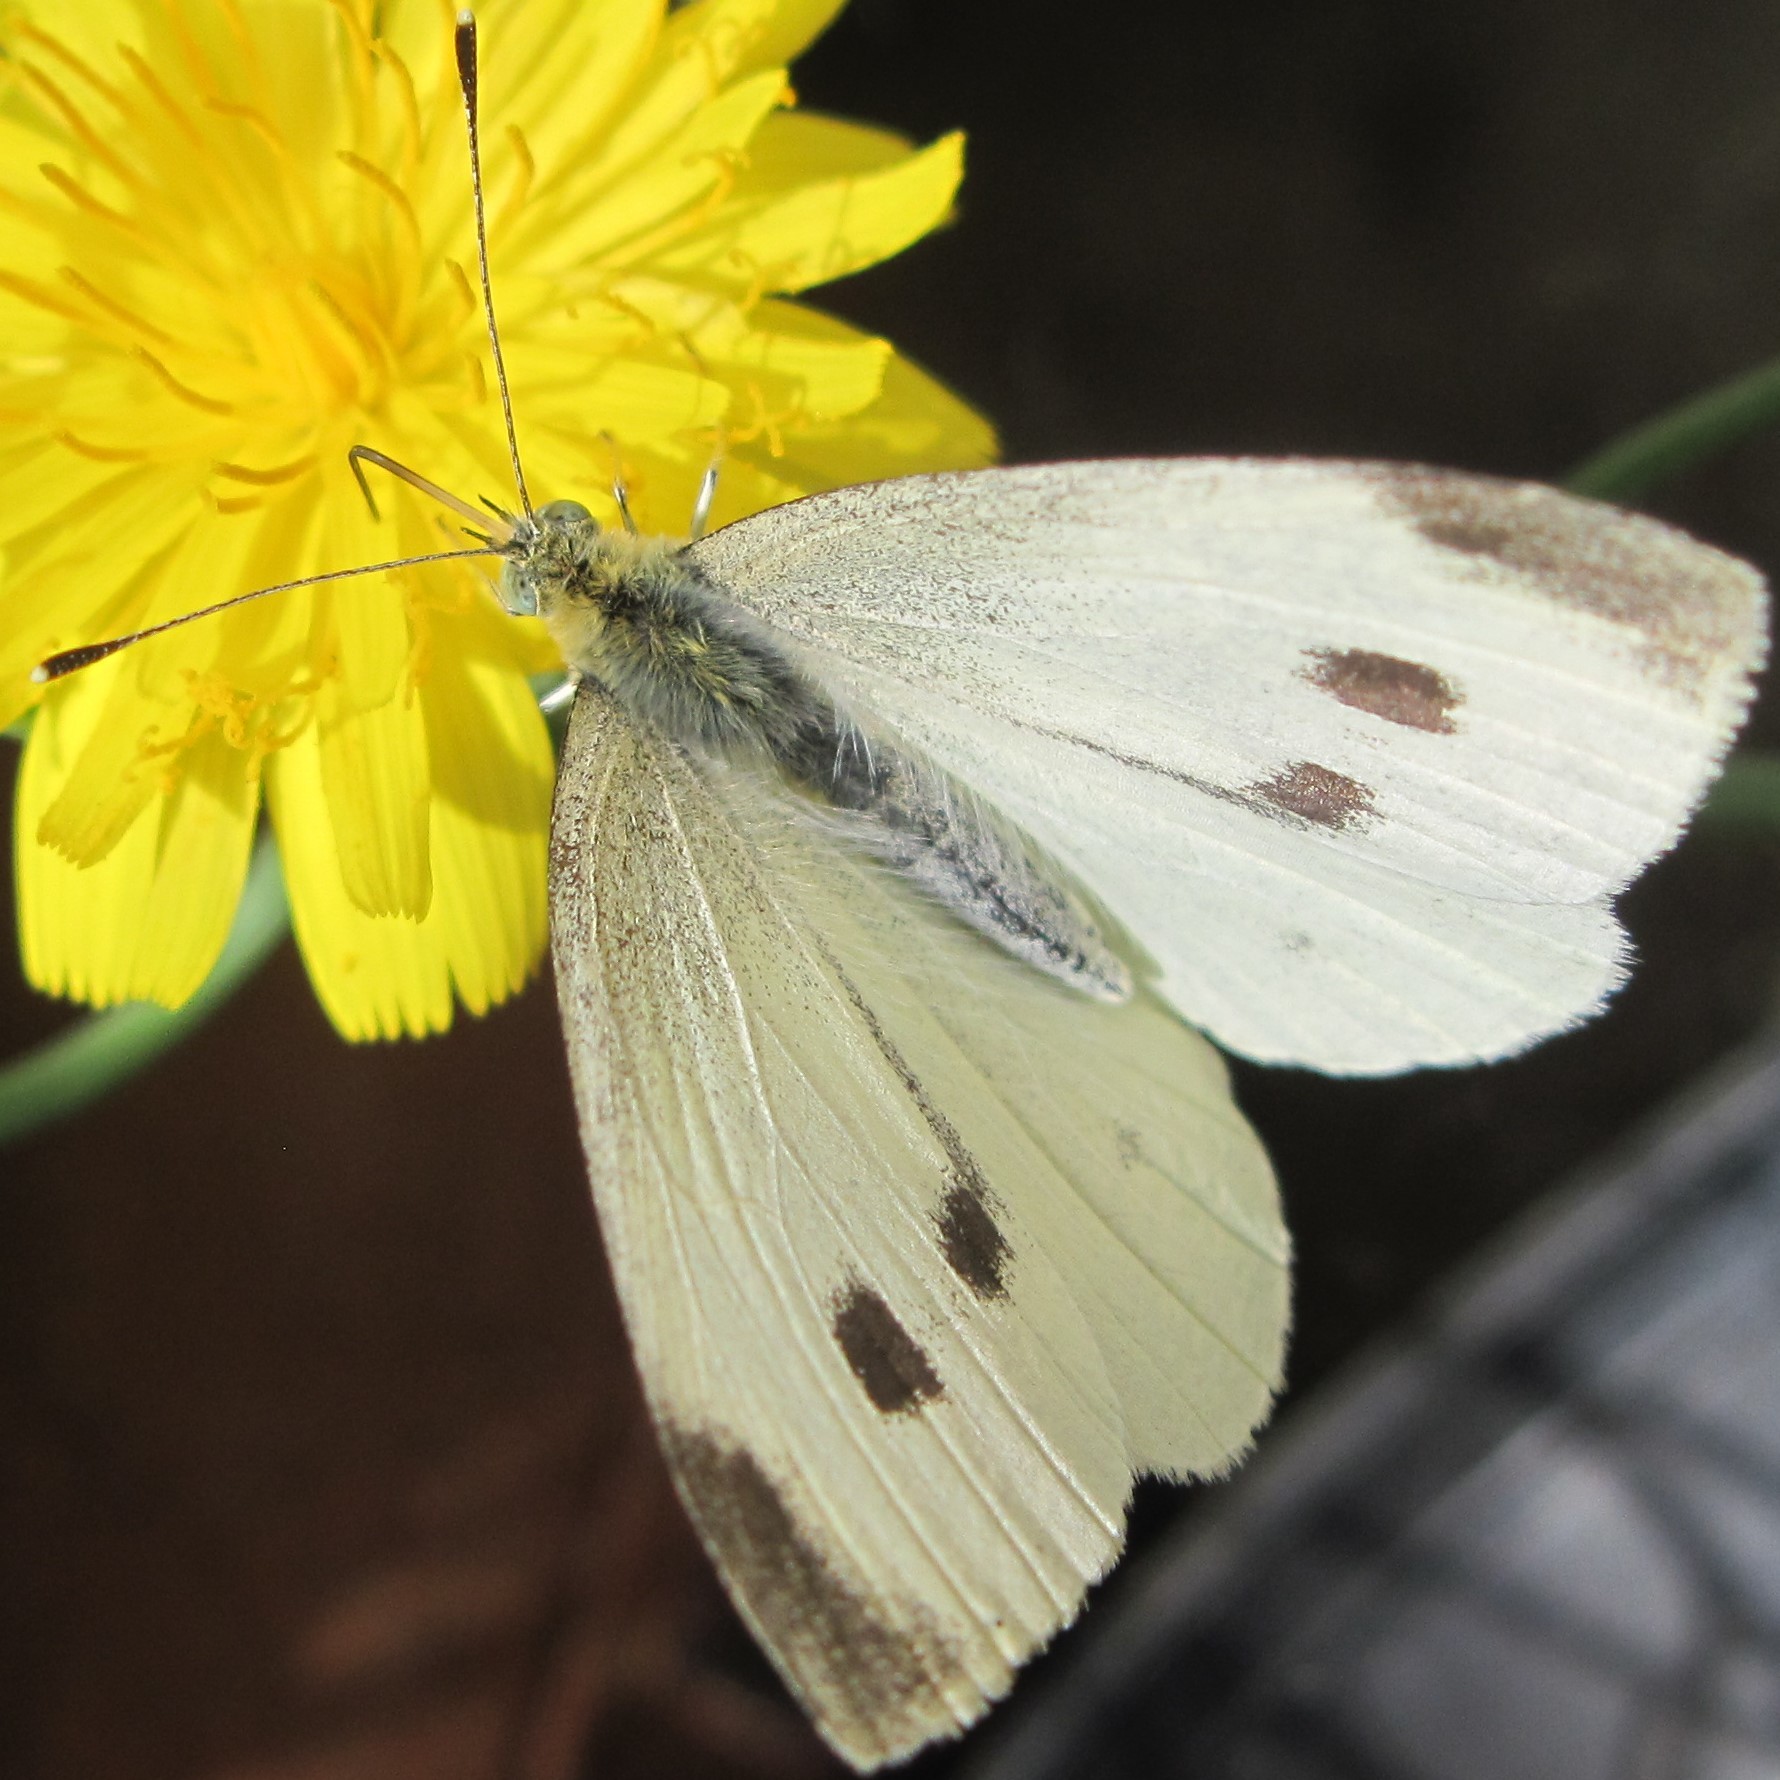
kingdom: Animalia
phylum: Arthropoda
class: Insecta
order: Lepidoptera
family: Pieridae
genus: Pieris
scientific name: Pieris rapae
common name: Small white
